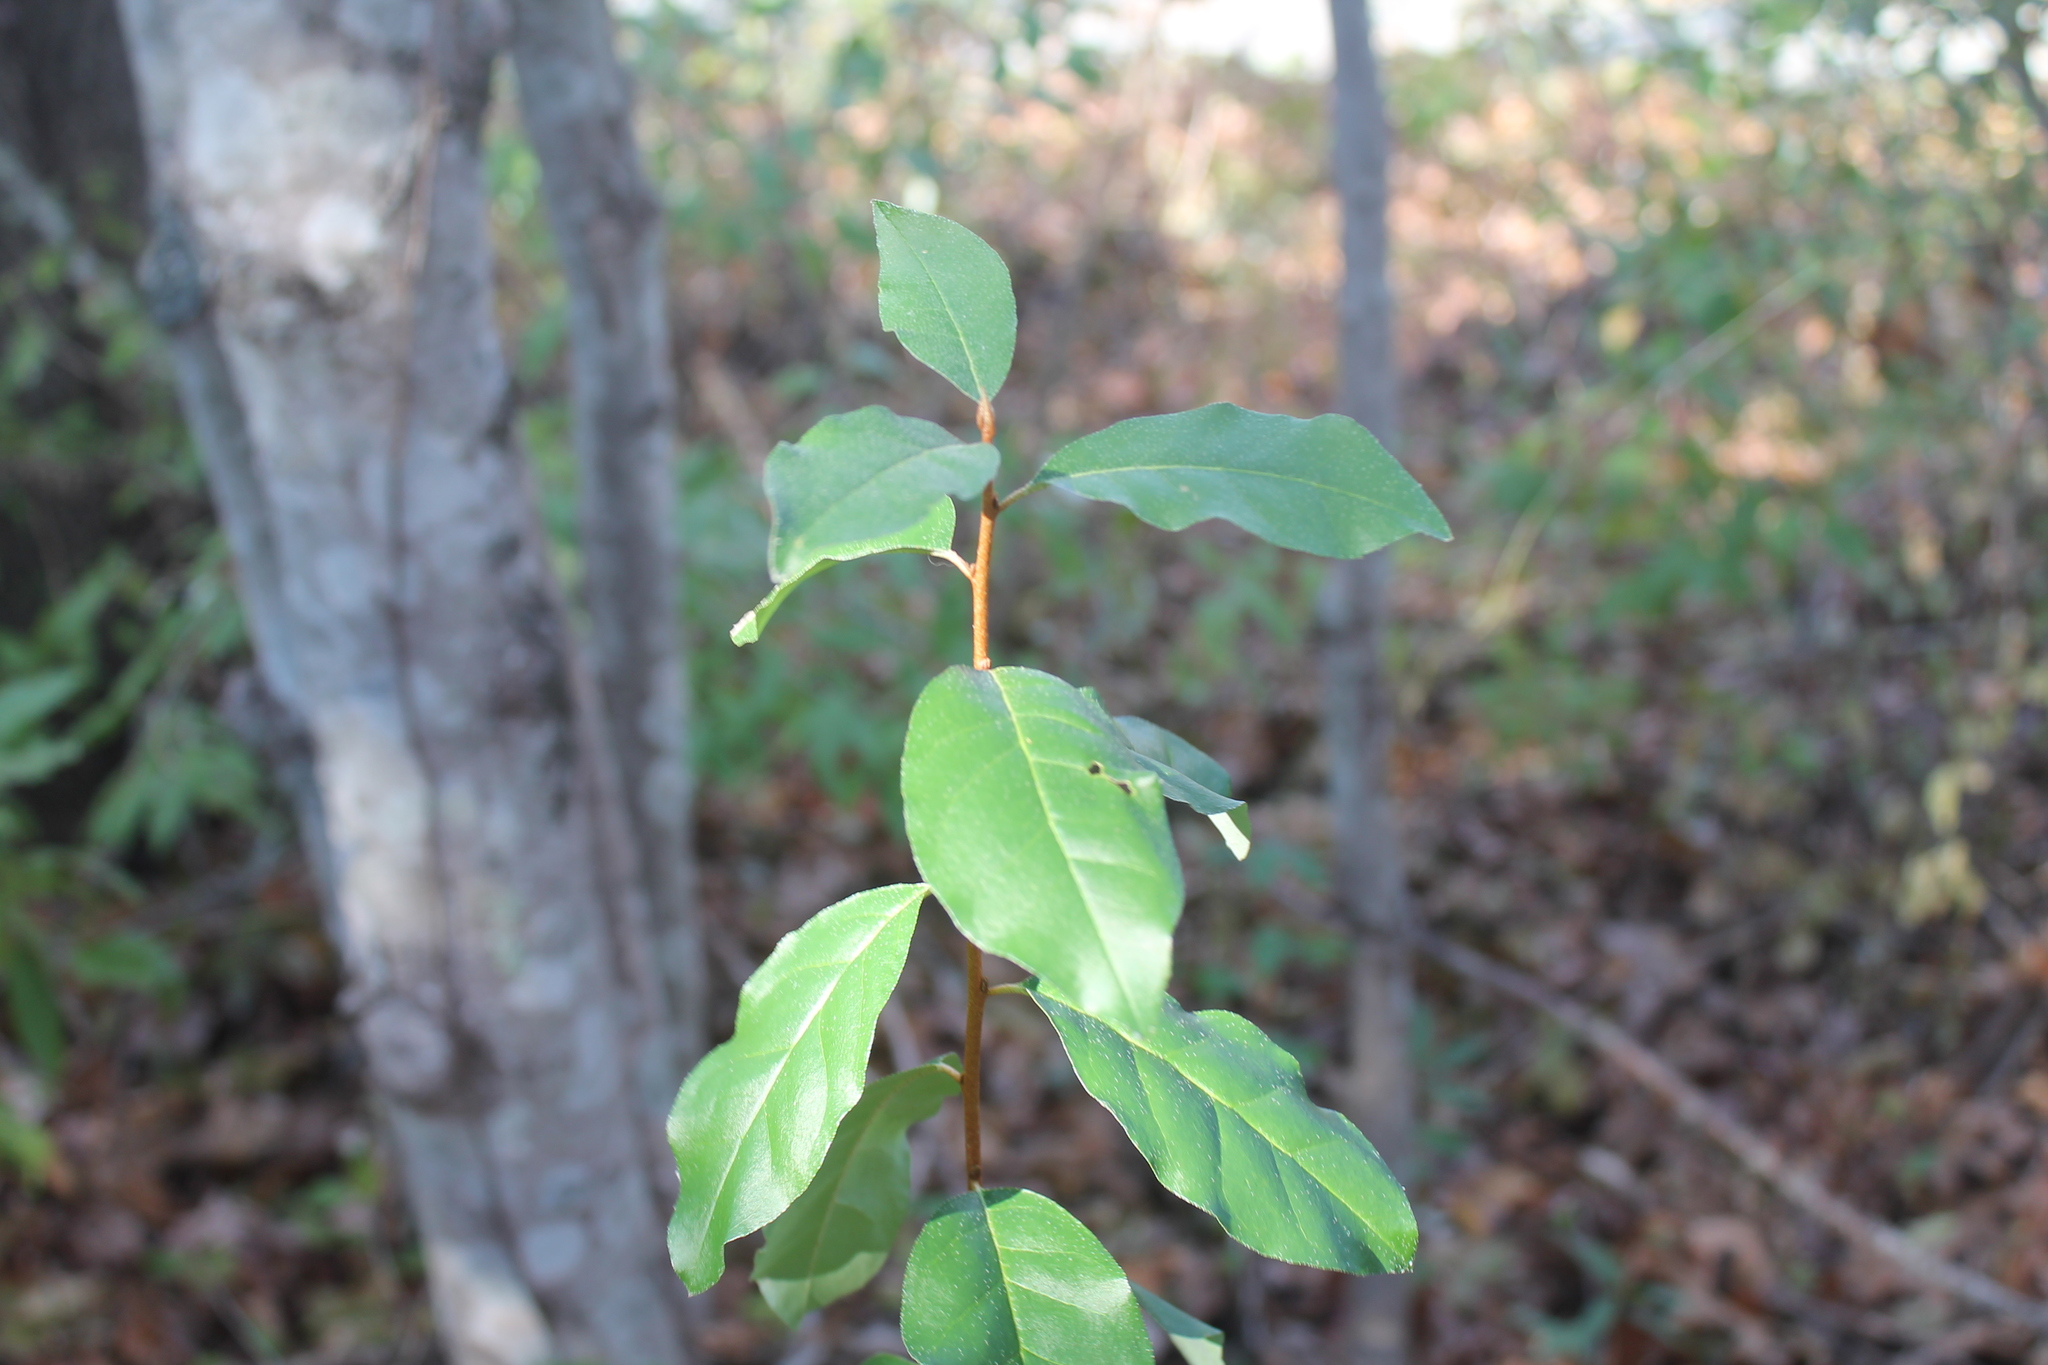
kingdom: Plantae
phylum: Tracheophyta
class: Magnoliopsida
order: Rosales
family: Elaeagnaceae
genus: Elaeagnus
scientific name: Elaeagnus umbellata
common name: Autumn olive
